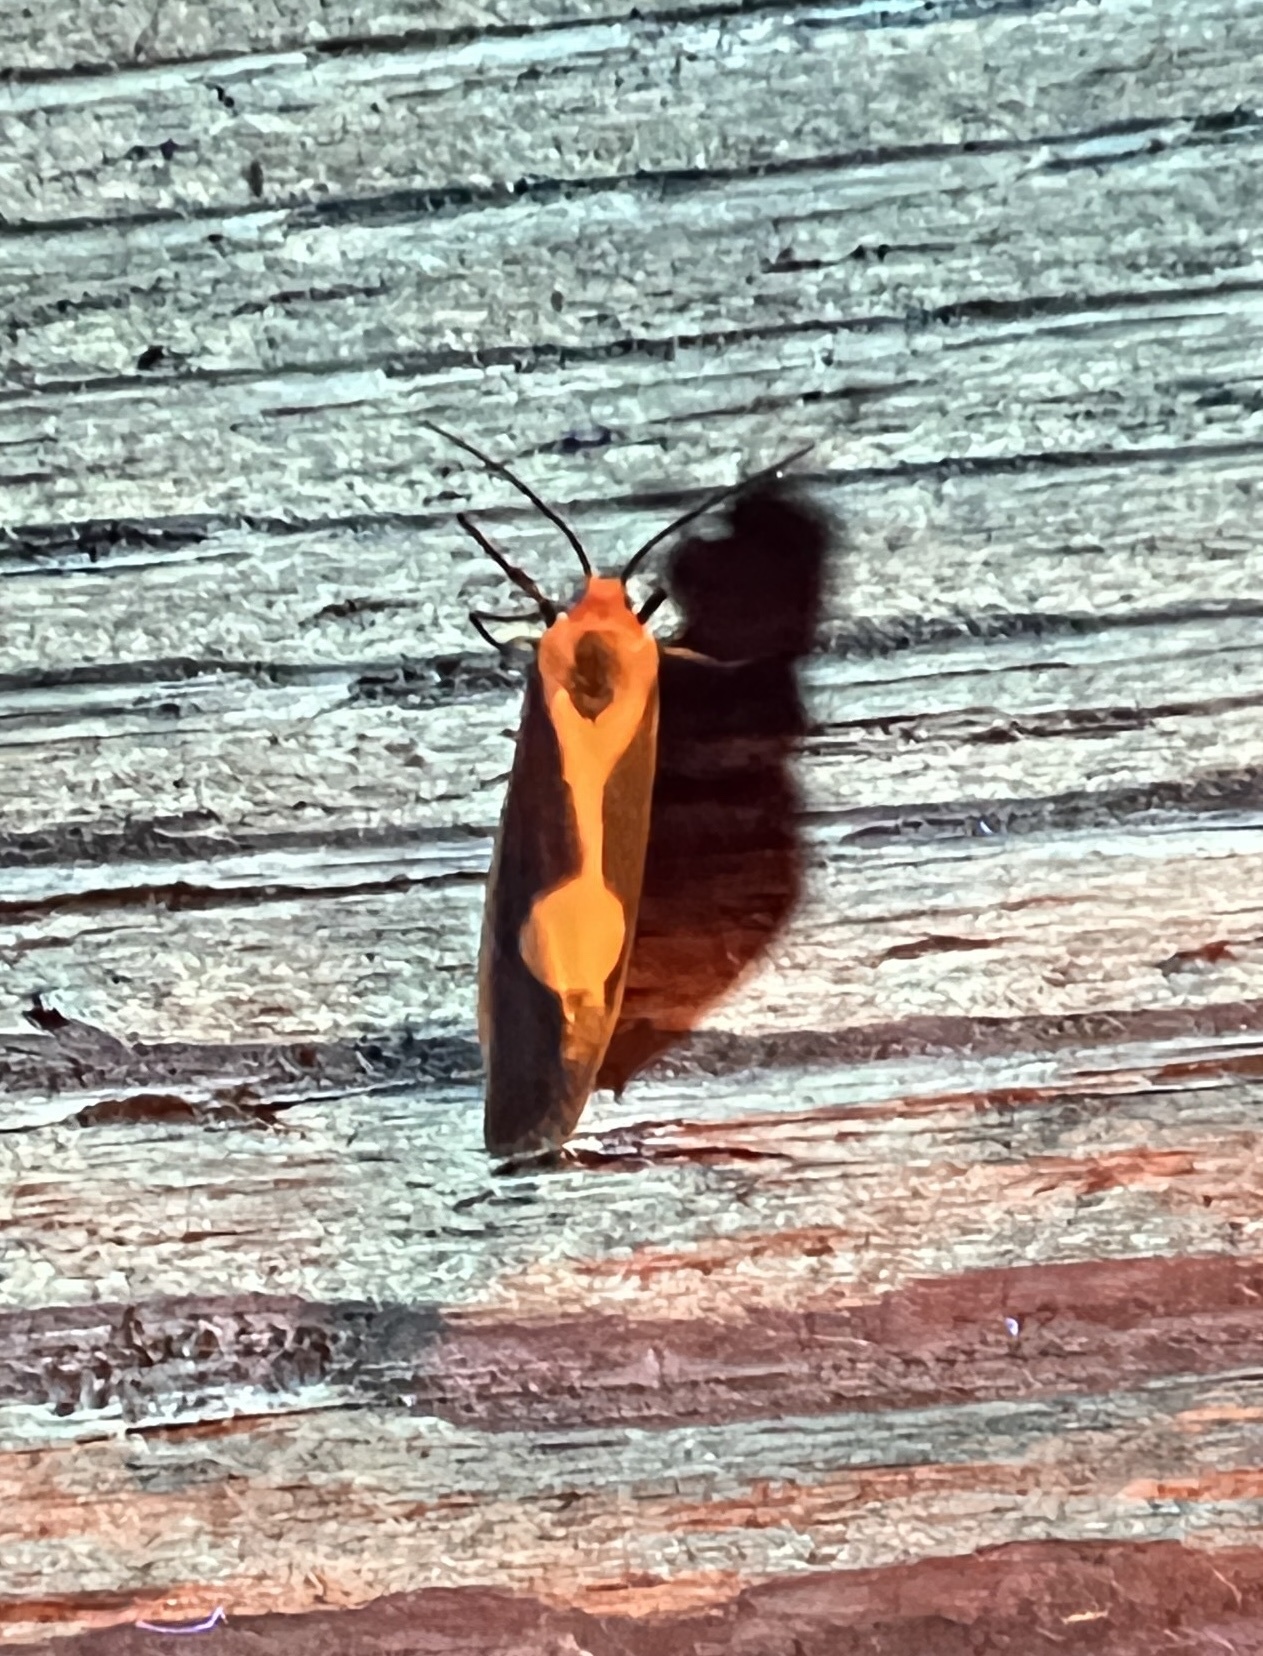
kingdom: Animalia
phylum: Arthropoda
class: Insecta
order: Lepidoptera
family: Erebidae
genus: Cisthene
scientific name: Cisthene plumbea
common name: Lead colored lichen moth
